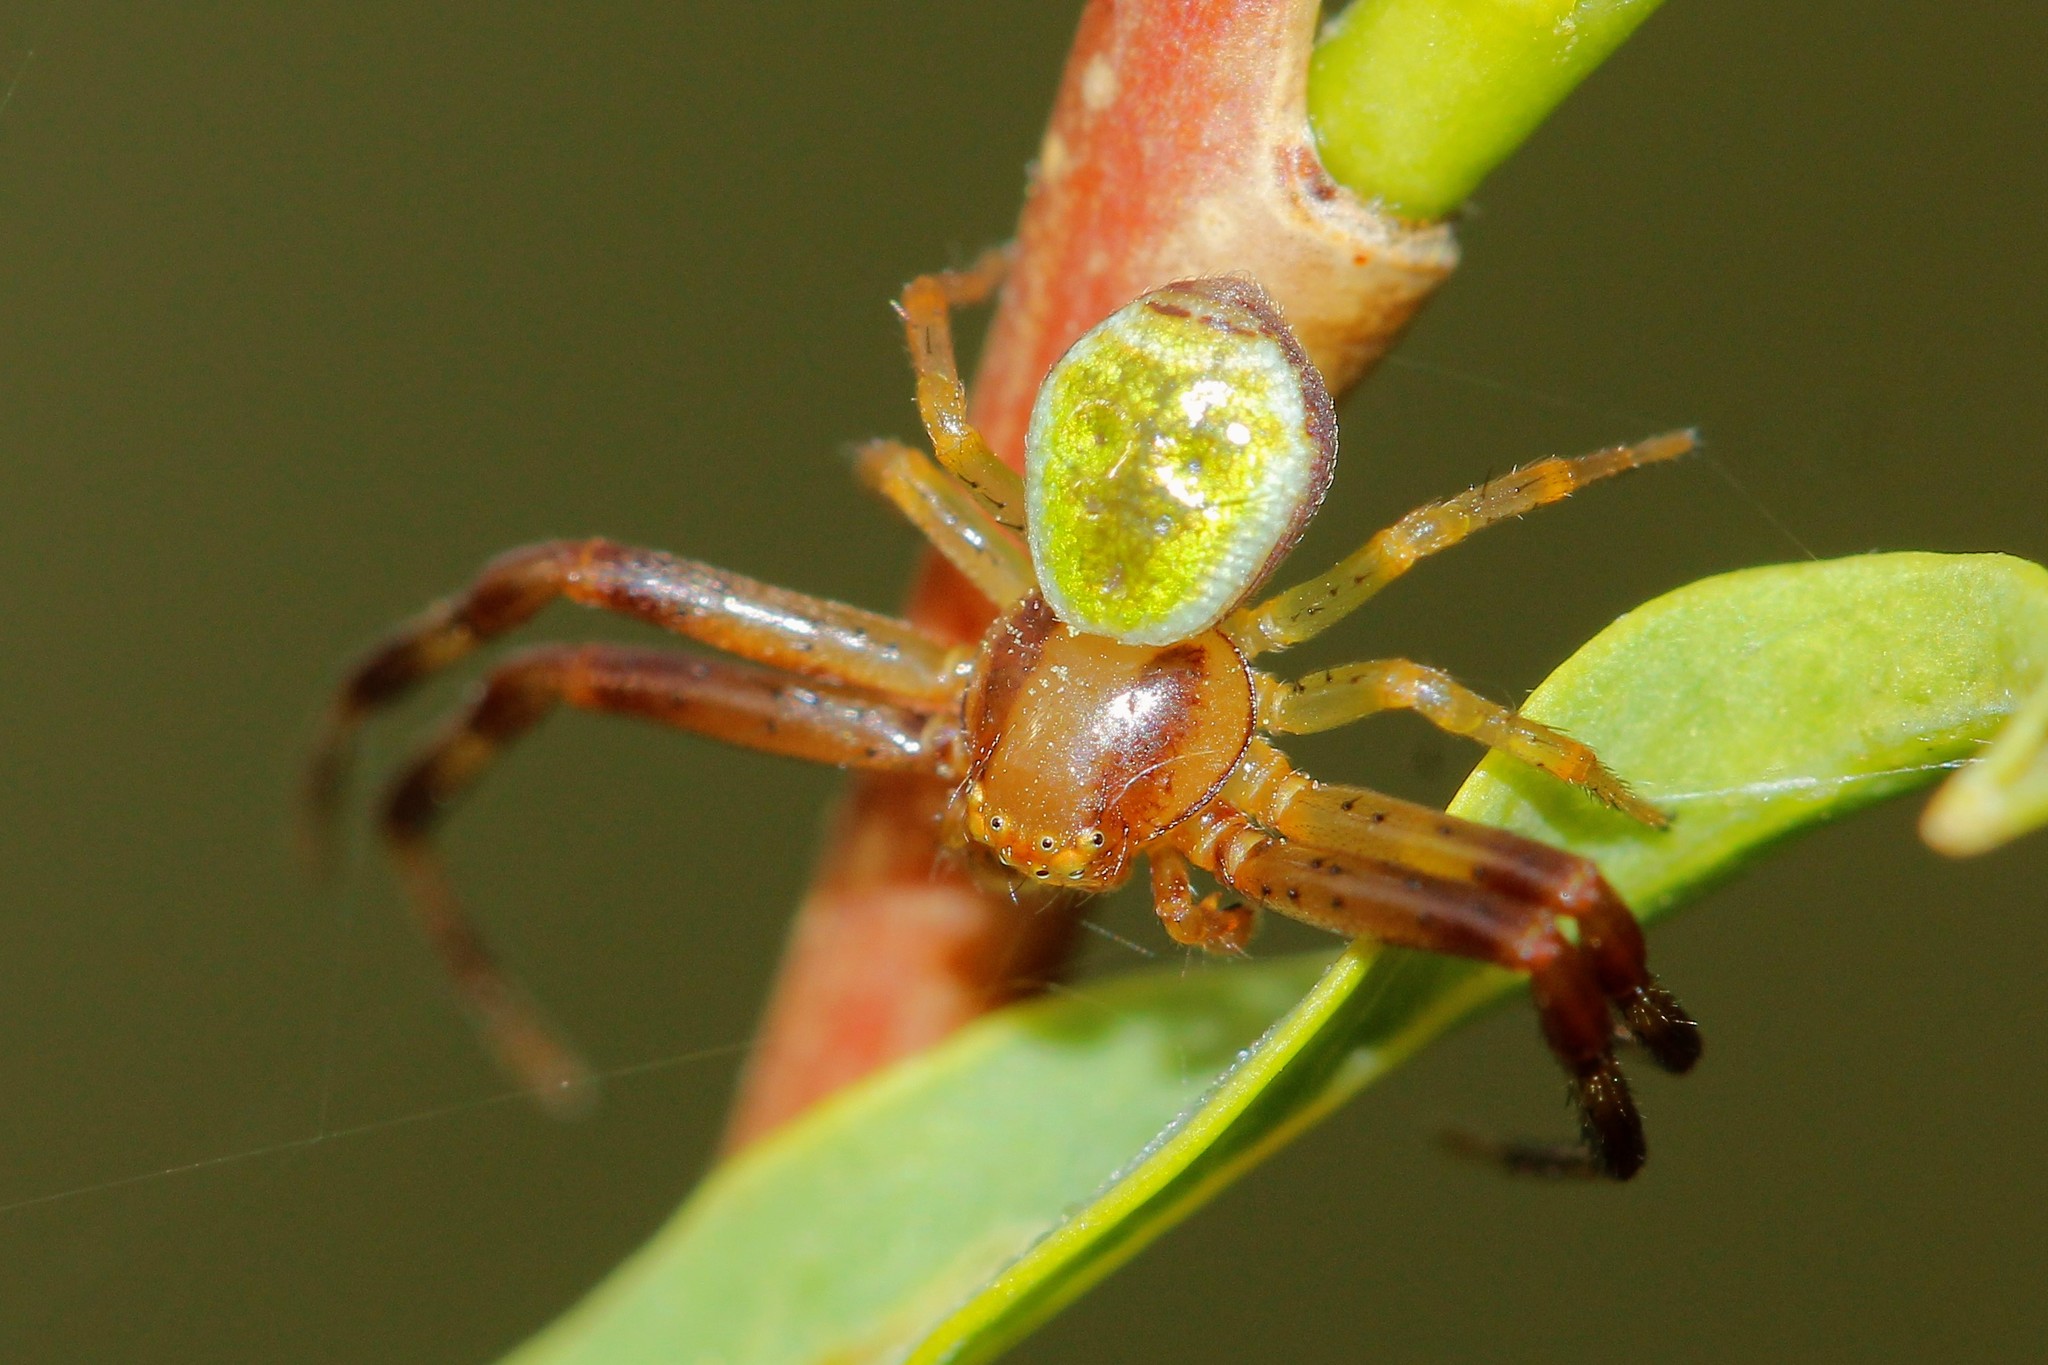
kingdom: Animalia
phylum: Arthropoda
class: Arachnida
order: Araneae
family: Thomisidae
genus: Ebrechtella
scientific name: Ebrechtella tricuspidata
